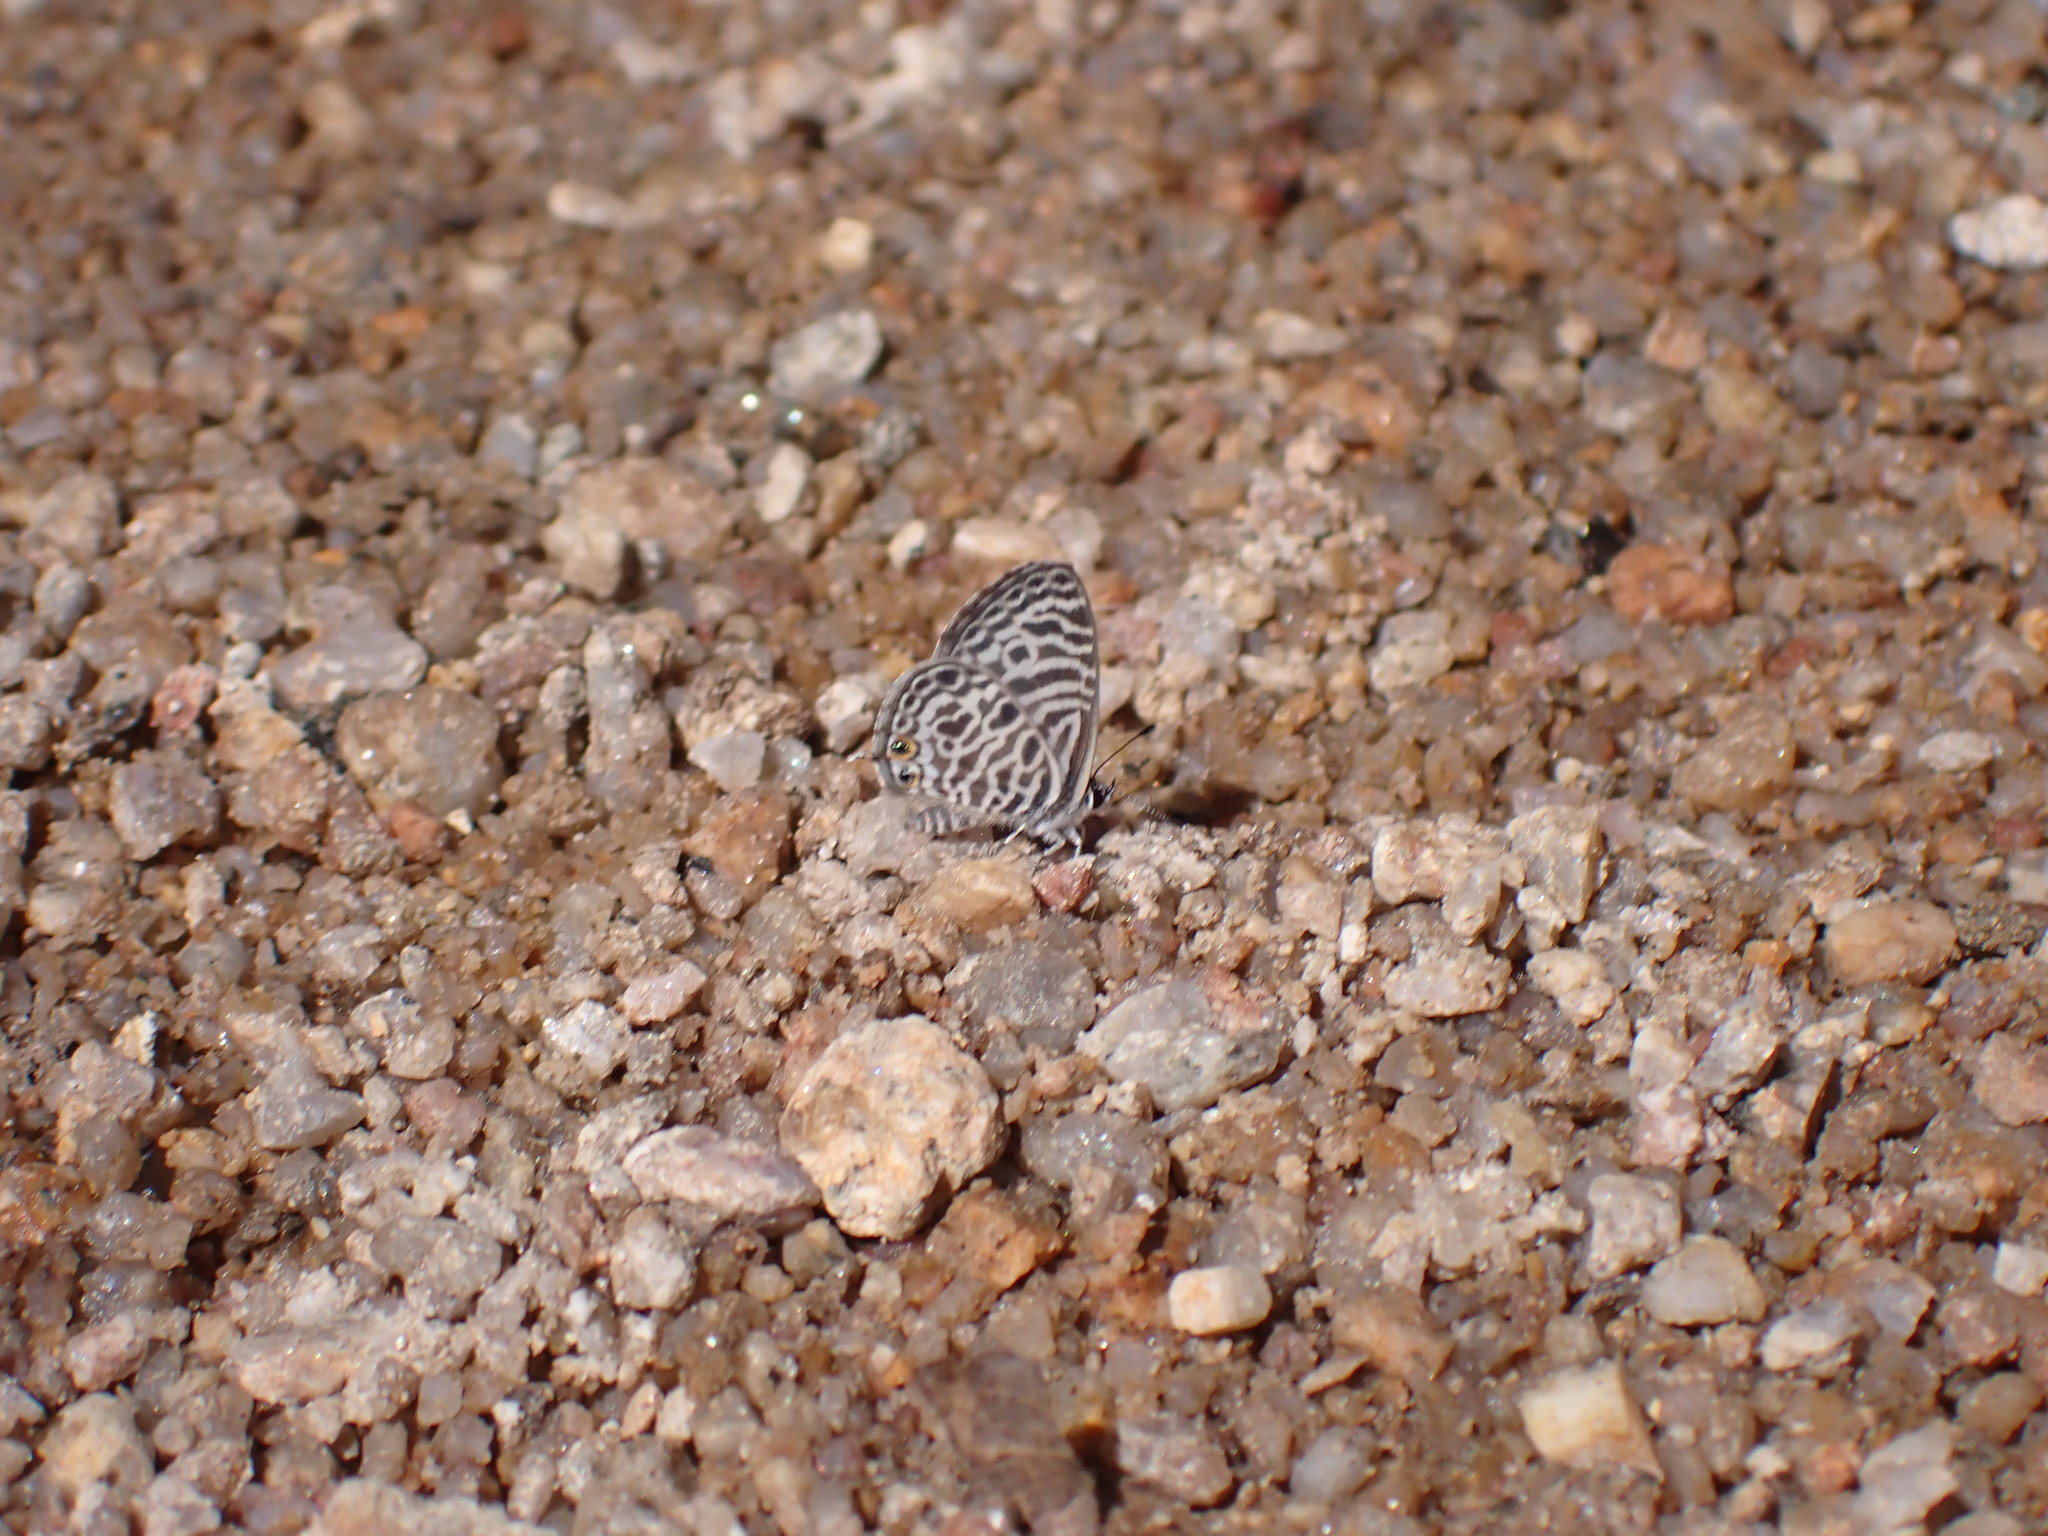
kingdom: Animalia
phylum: Arthropoda
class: Insecta
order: Lepidoptera
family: Lycaenidae
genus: Leptotes
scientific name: Leptotes plinius
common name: Zebra blue
